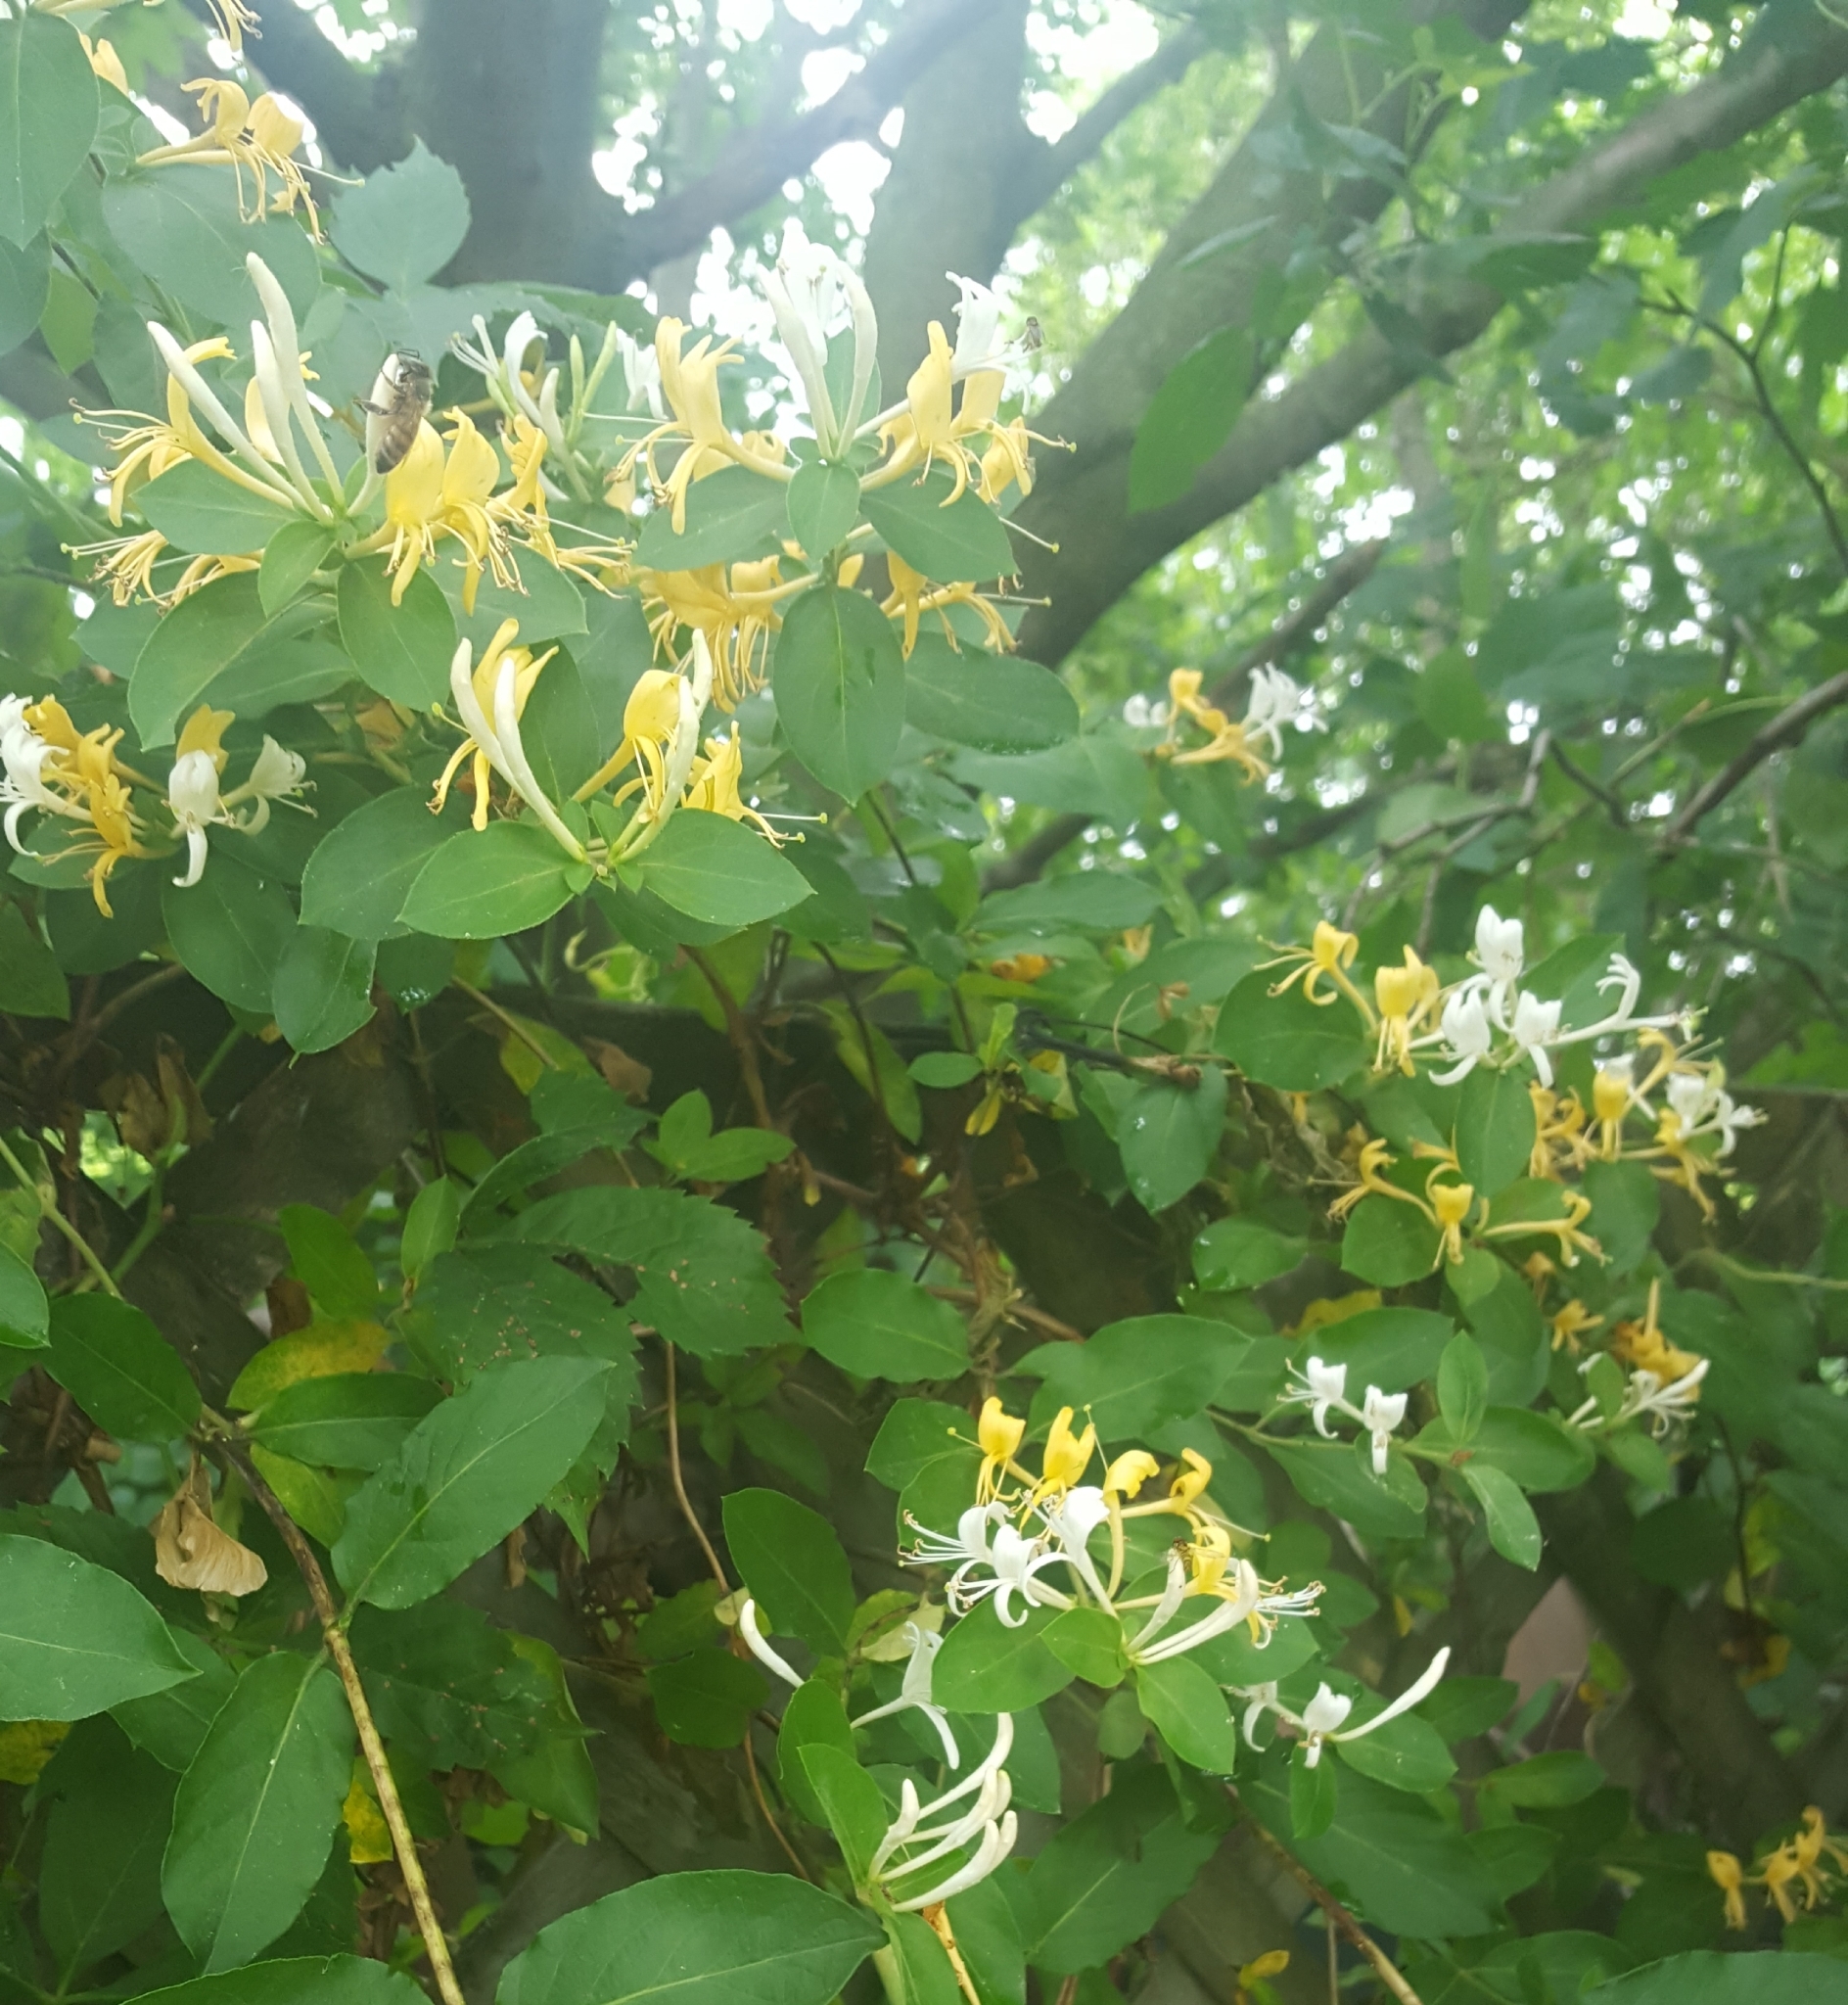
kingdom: Plantae
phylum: Tracheophyta
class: Magnoliopsida
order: Dipsacales
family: Caprifoliaceae
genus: Lonicera
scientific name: Lonicera japonica
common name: Japanese honeysuckle
